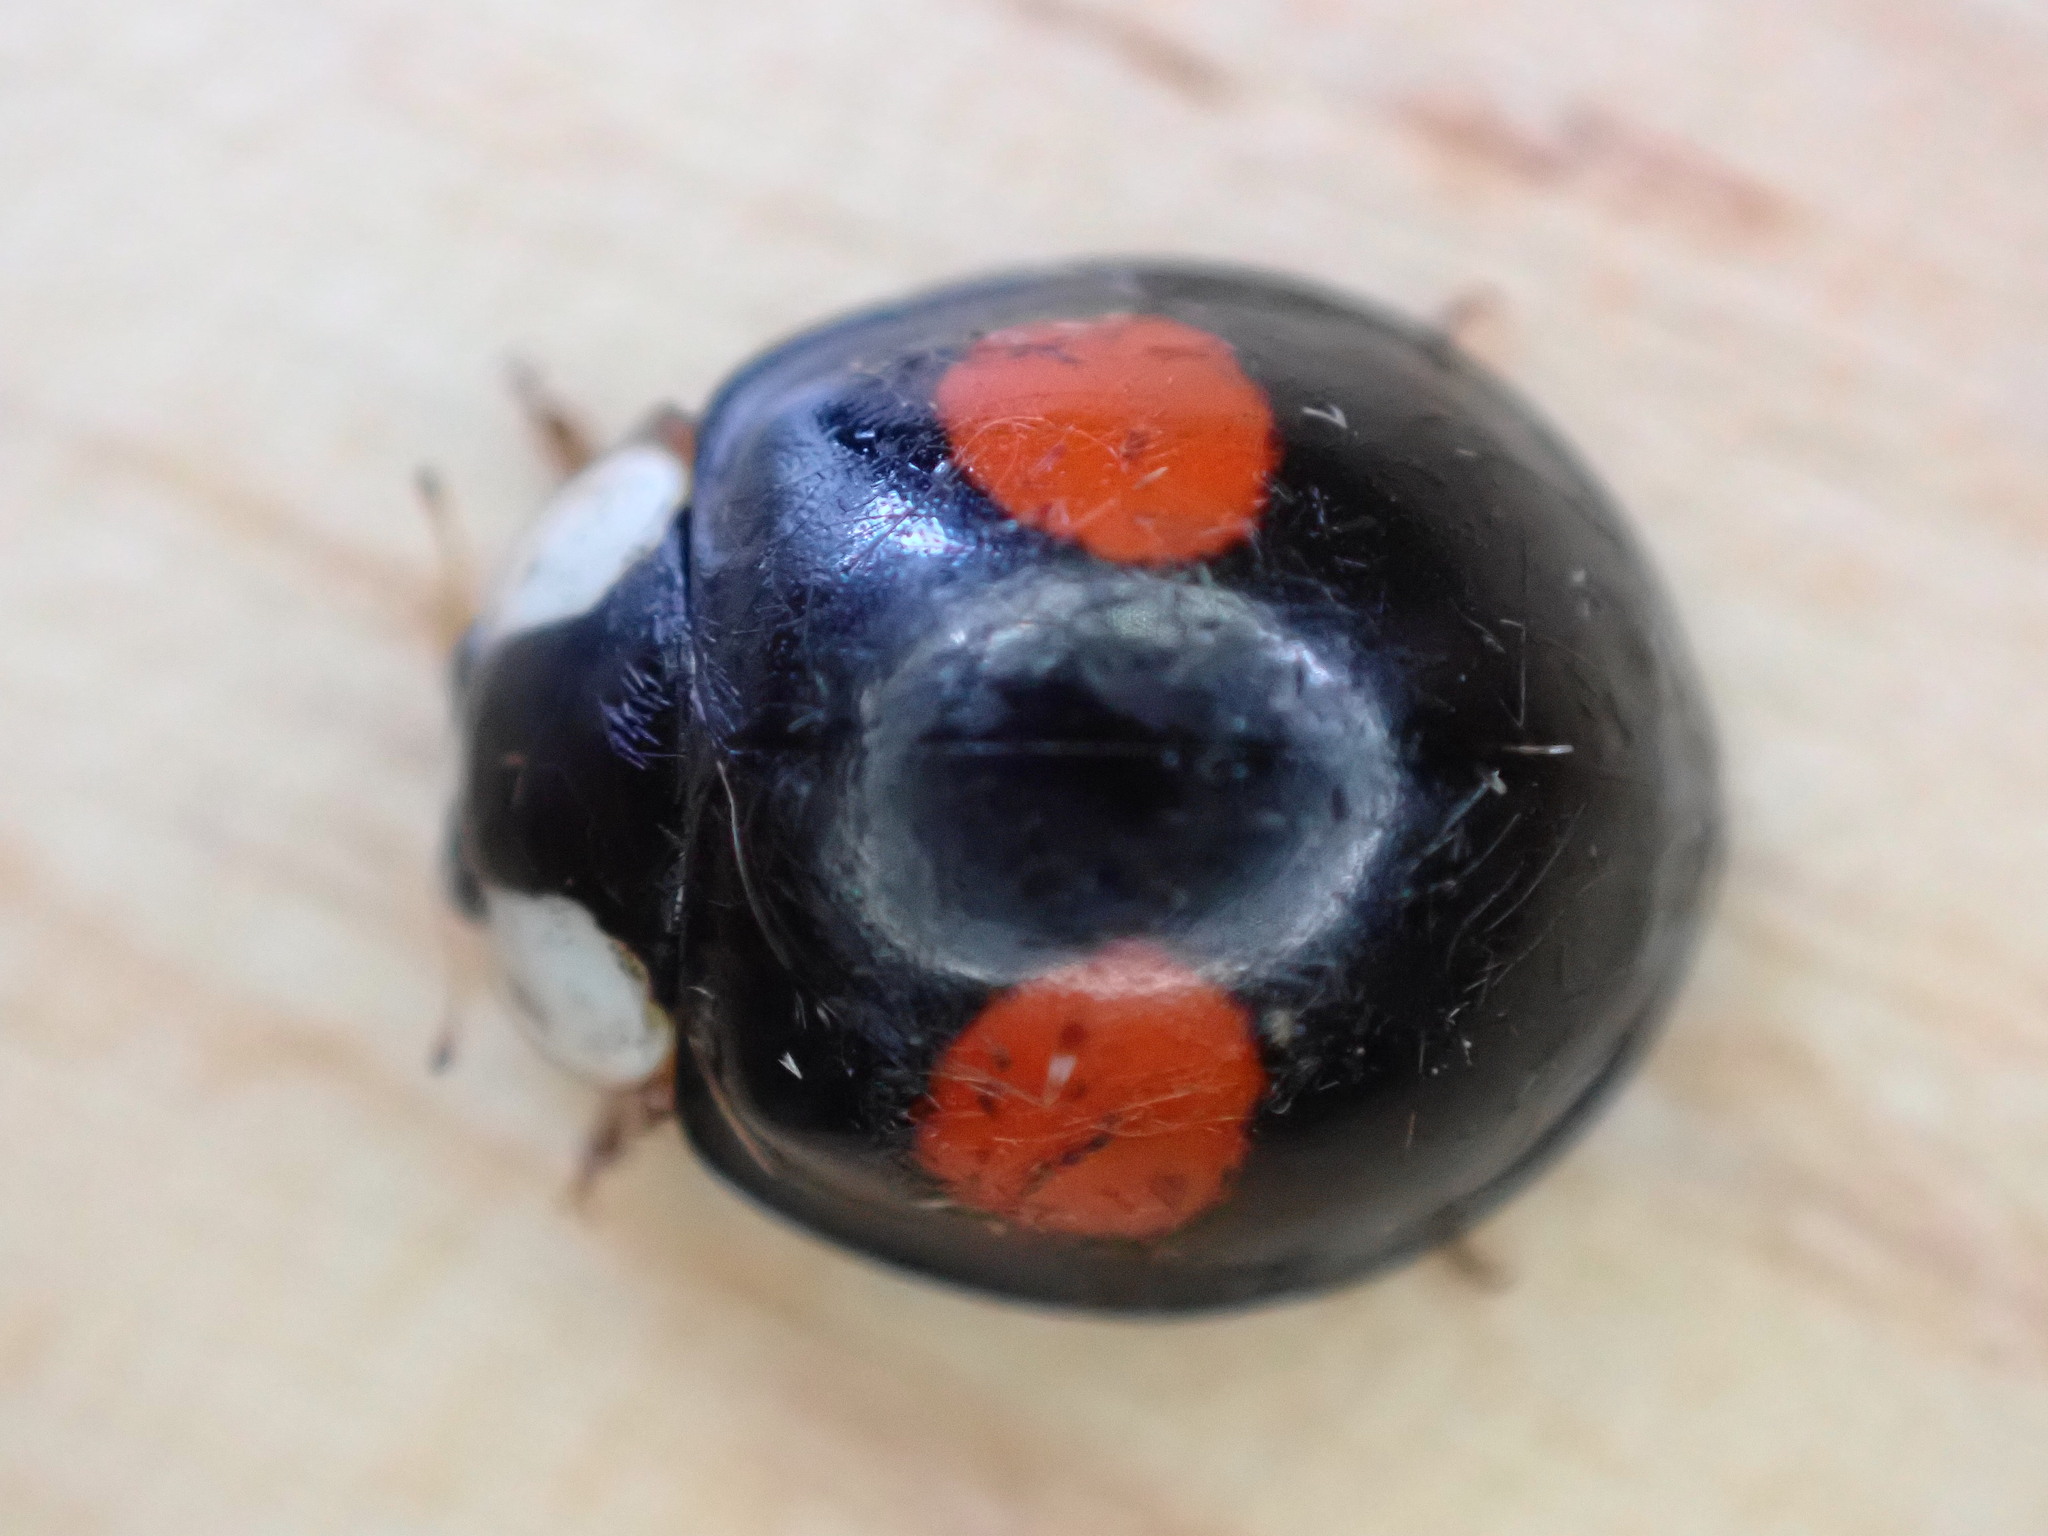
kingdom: Animalia
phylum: Arthropoda
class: Insecta
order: Coleoptera
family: Coccinellidae
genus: Harmonia
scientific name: Harmonia axyridis
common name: Harlequin ladybird
